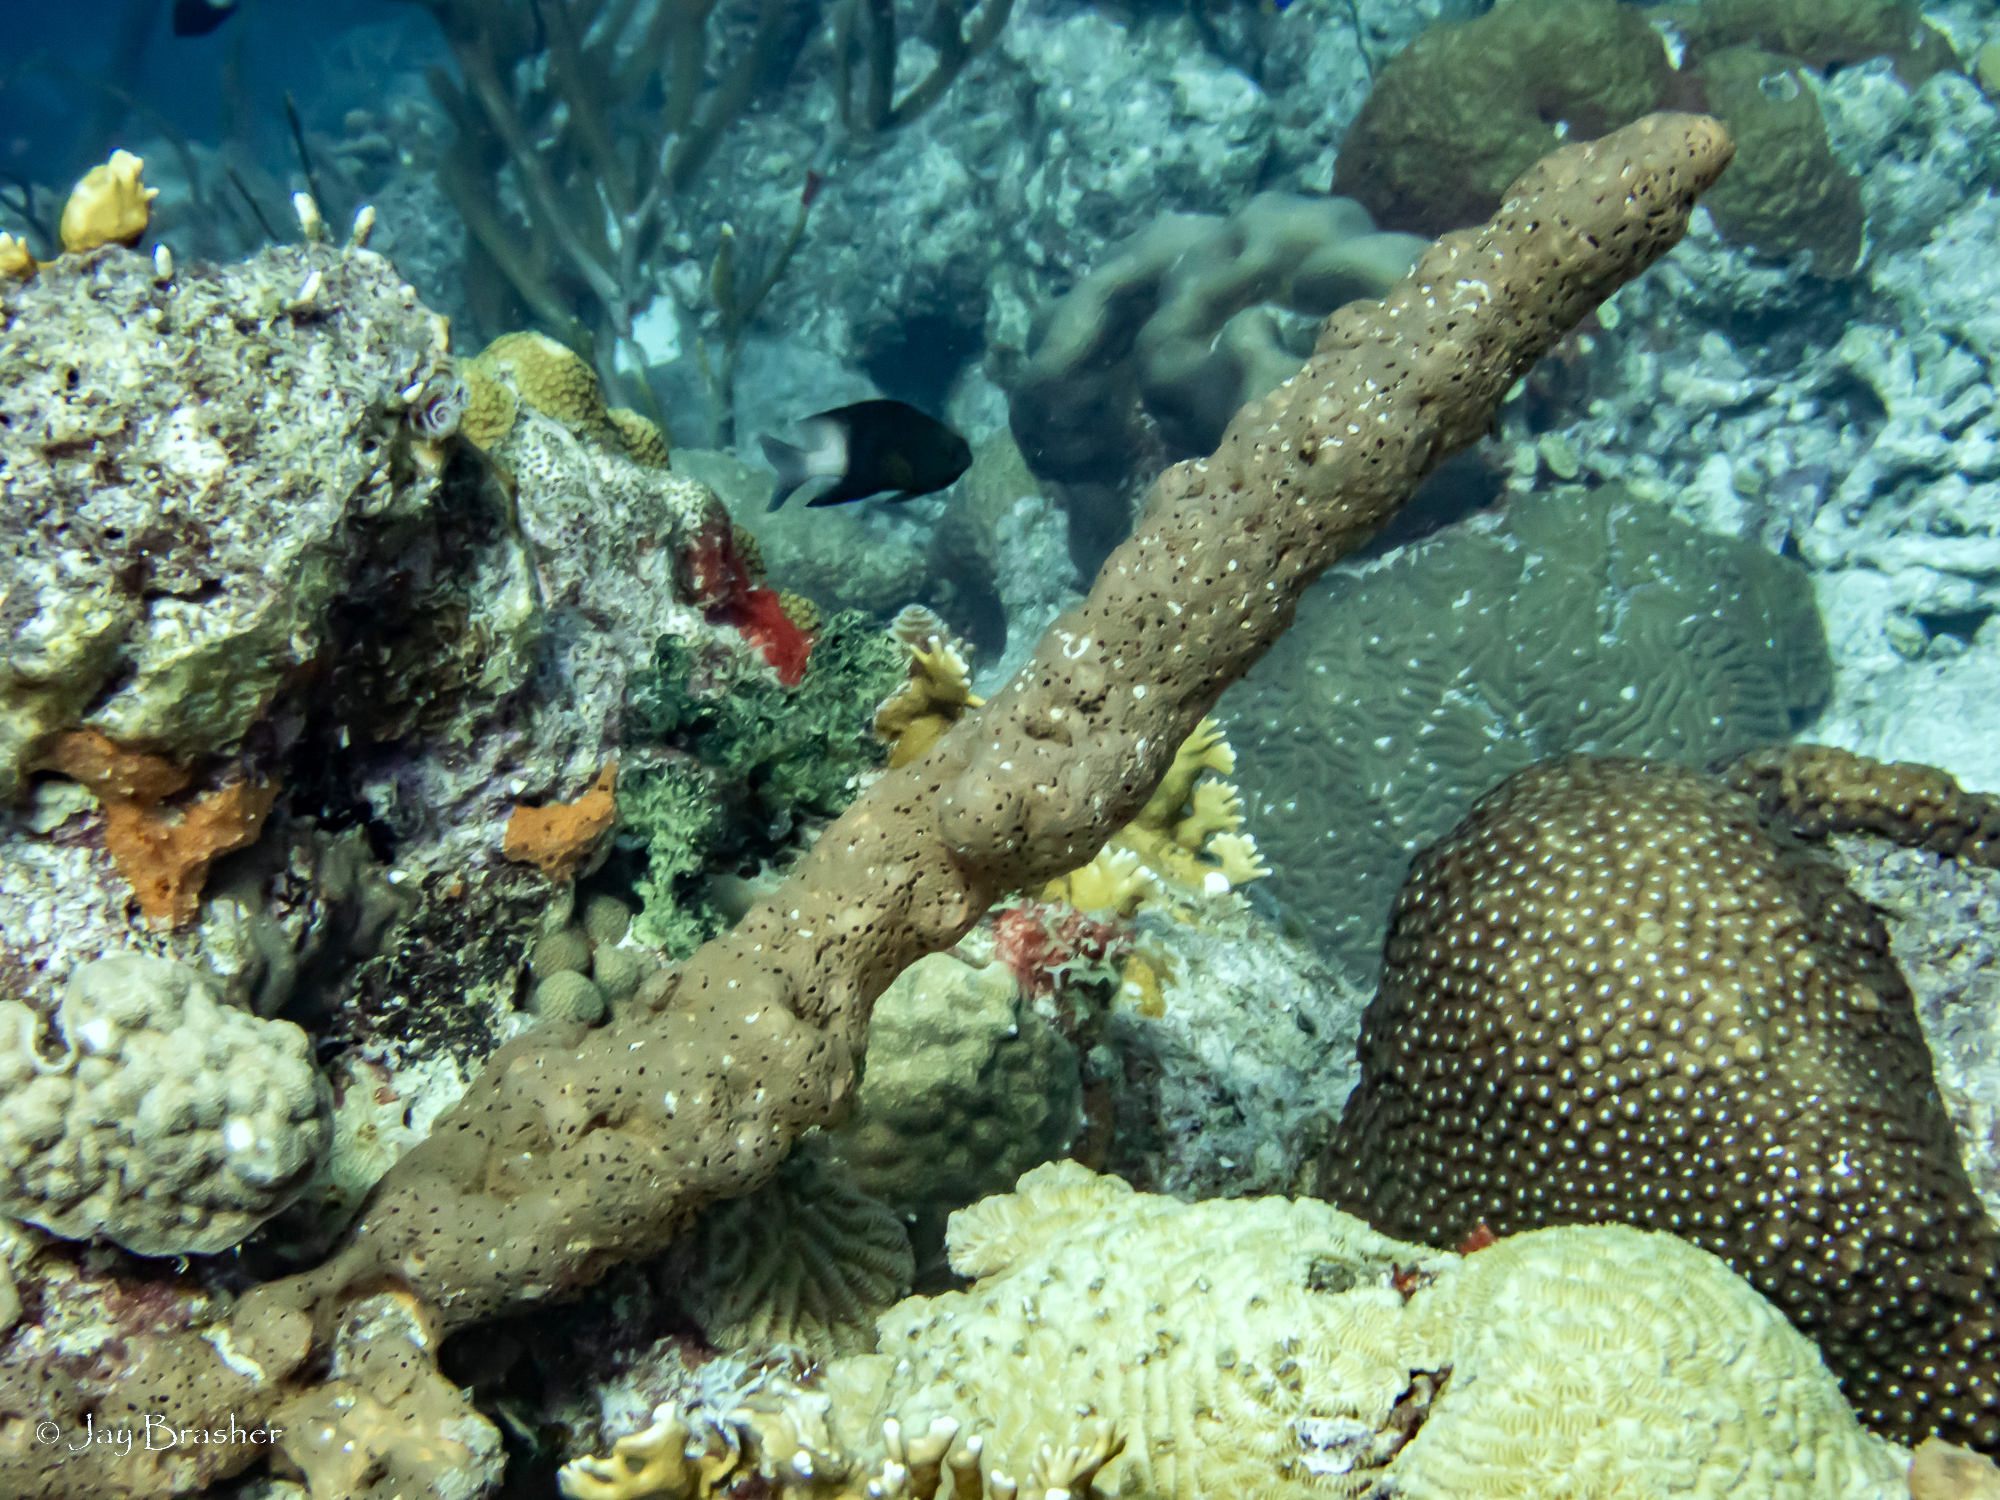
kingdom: Animalia
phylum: Cnidaria
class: Anthozoa
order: Scleractinia
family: Poritidae
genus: Porites
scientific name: Porites astreoides
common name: Mustard hill coral
